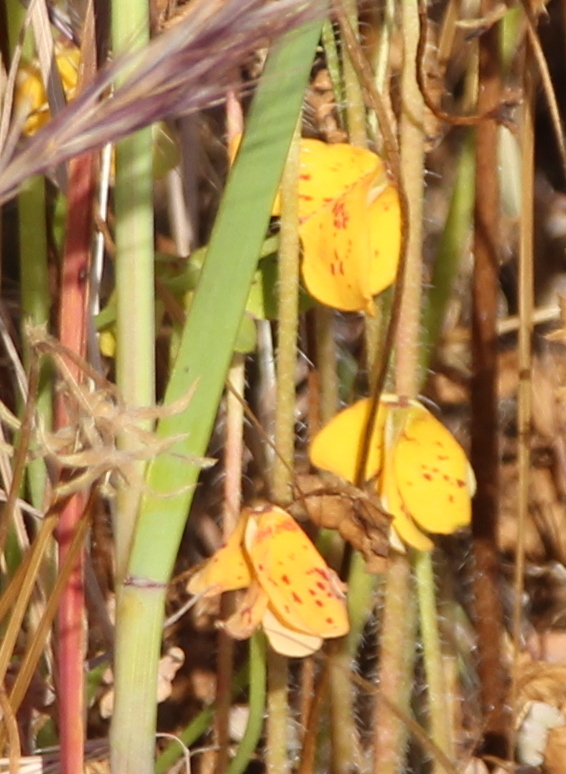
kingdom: Plantae
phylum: Tracheophyta
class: Magnoliopsida
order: Oxalidales
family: Oxalidaceae
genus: Oxalis
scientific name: Oxalis pes-caprae
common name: Bermuda-buttercup
